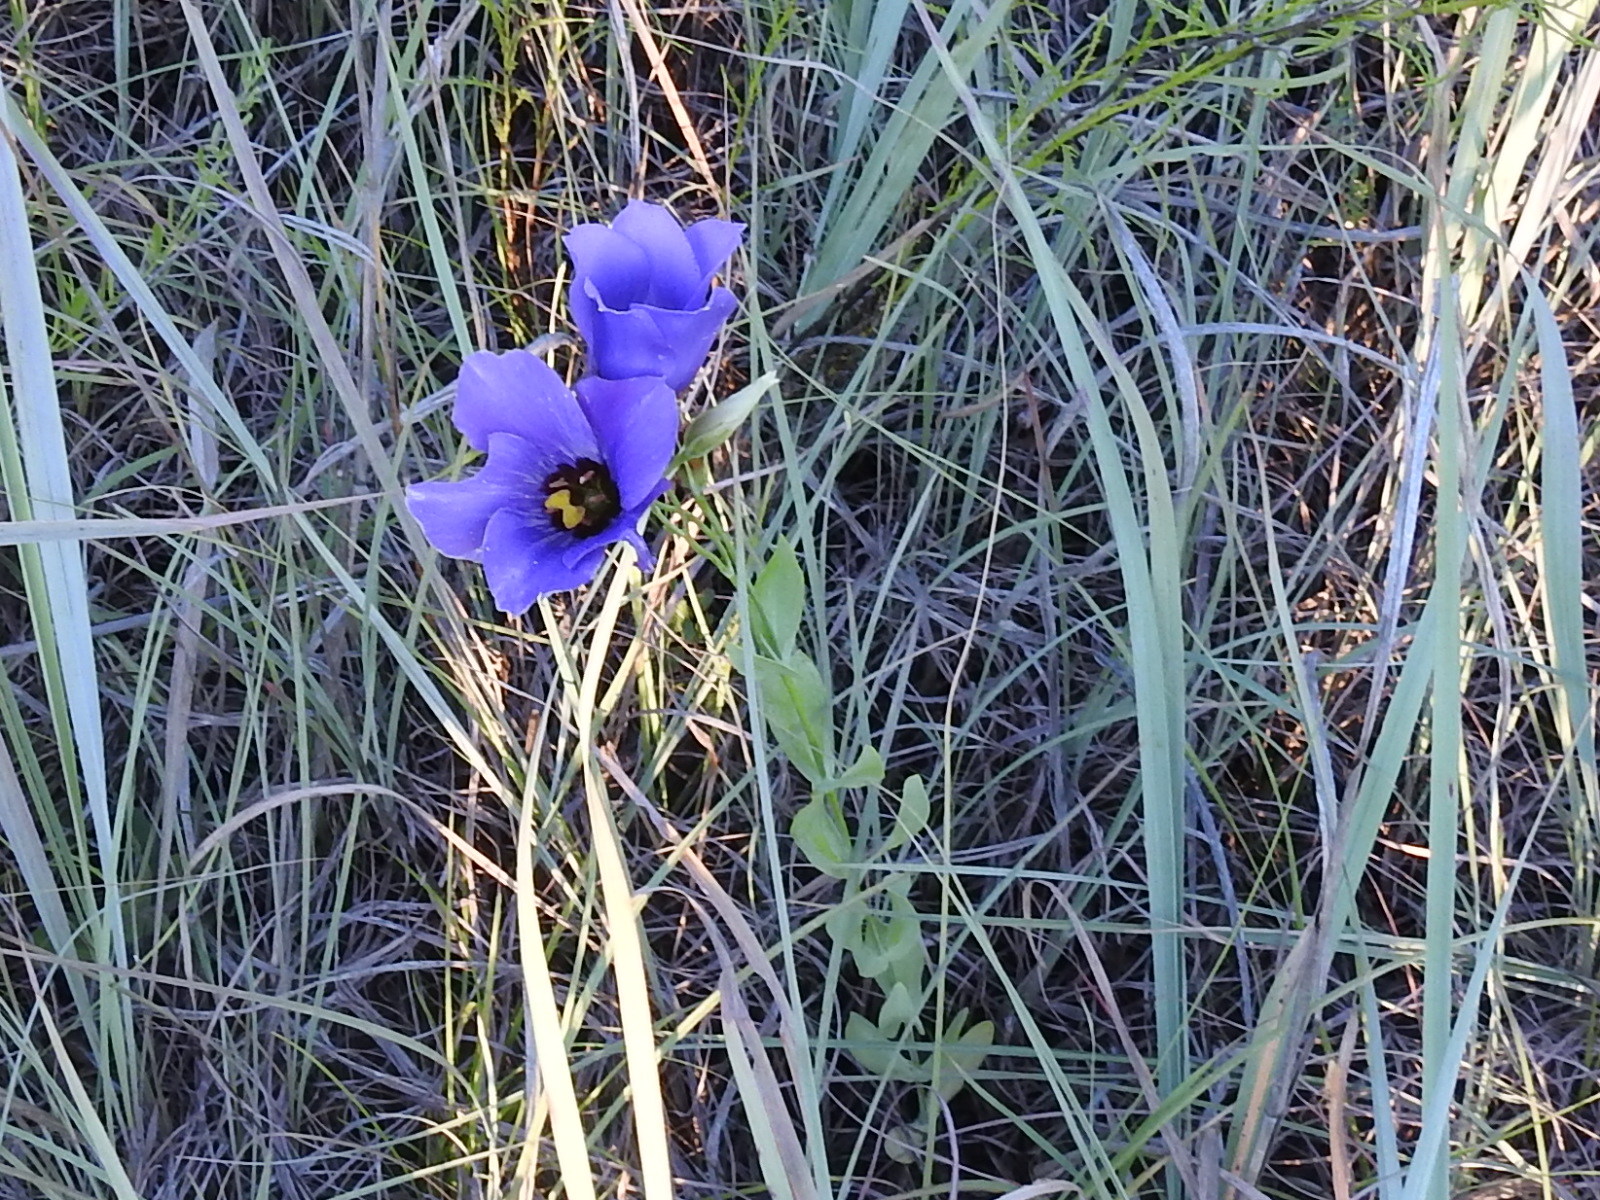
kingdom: Plantae
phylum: Tracheophyta
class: Magnoliopsida
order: Gentianales
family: Gentianaceae
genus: Eustoma
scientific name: Eustoma russellianum
